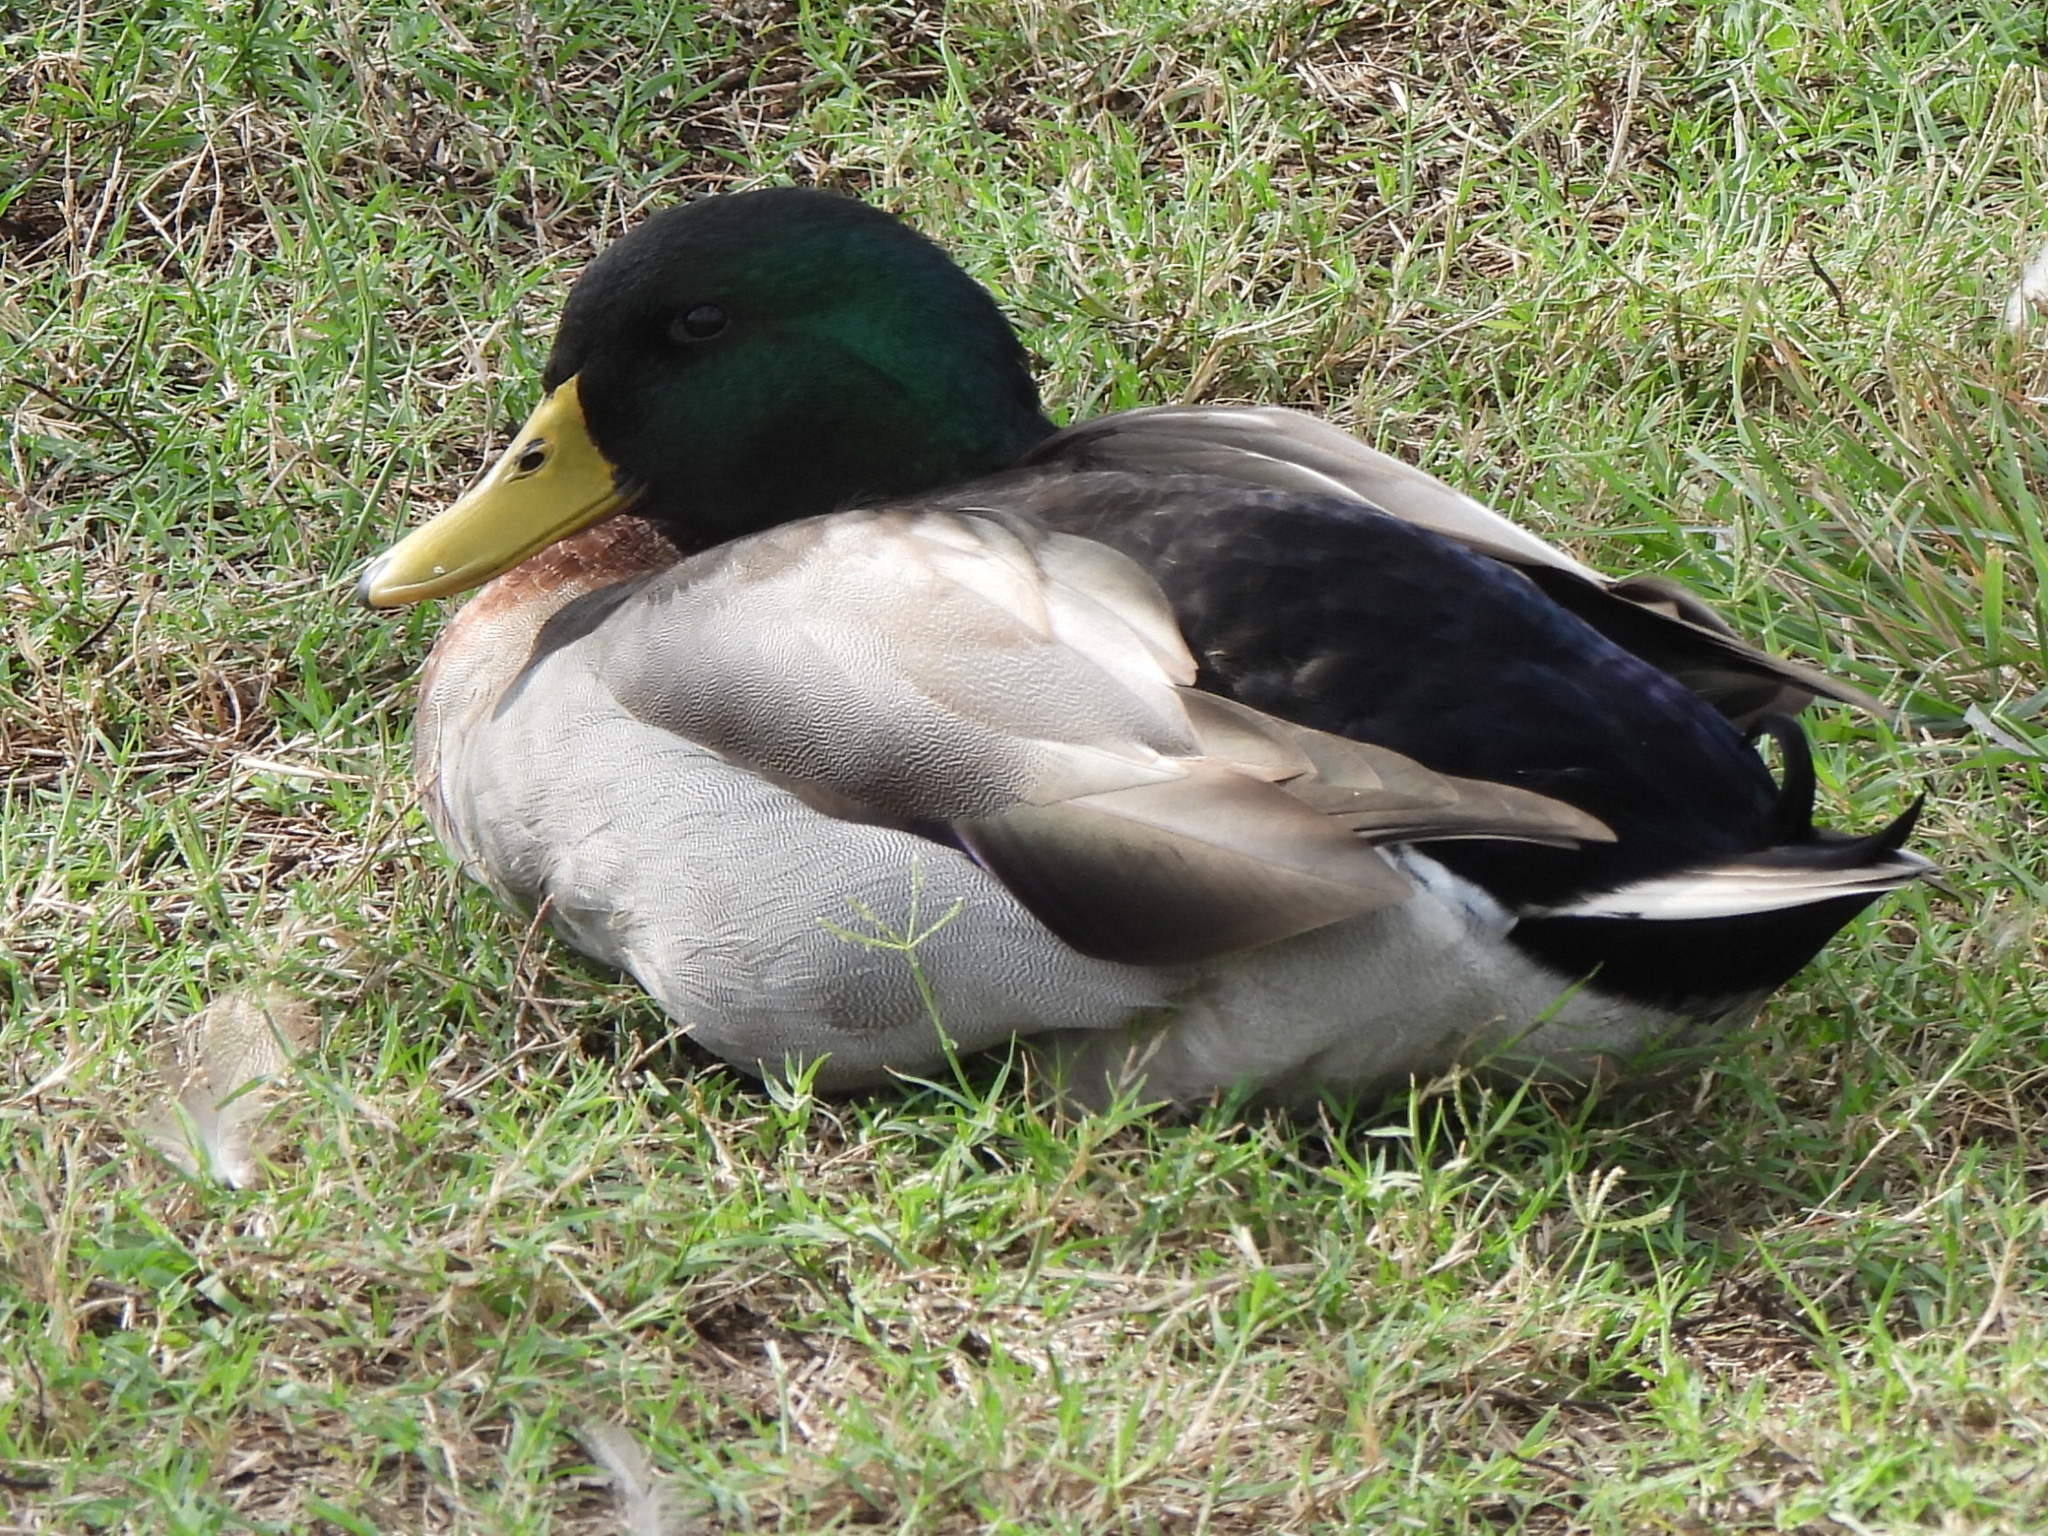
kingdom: Animalia
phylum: Chordata
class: Aves
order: Anseriformes
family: Anatidae
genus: Anas
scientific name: Anas platyrhynchos
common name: Mallard
